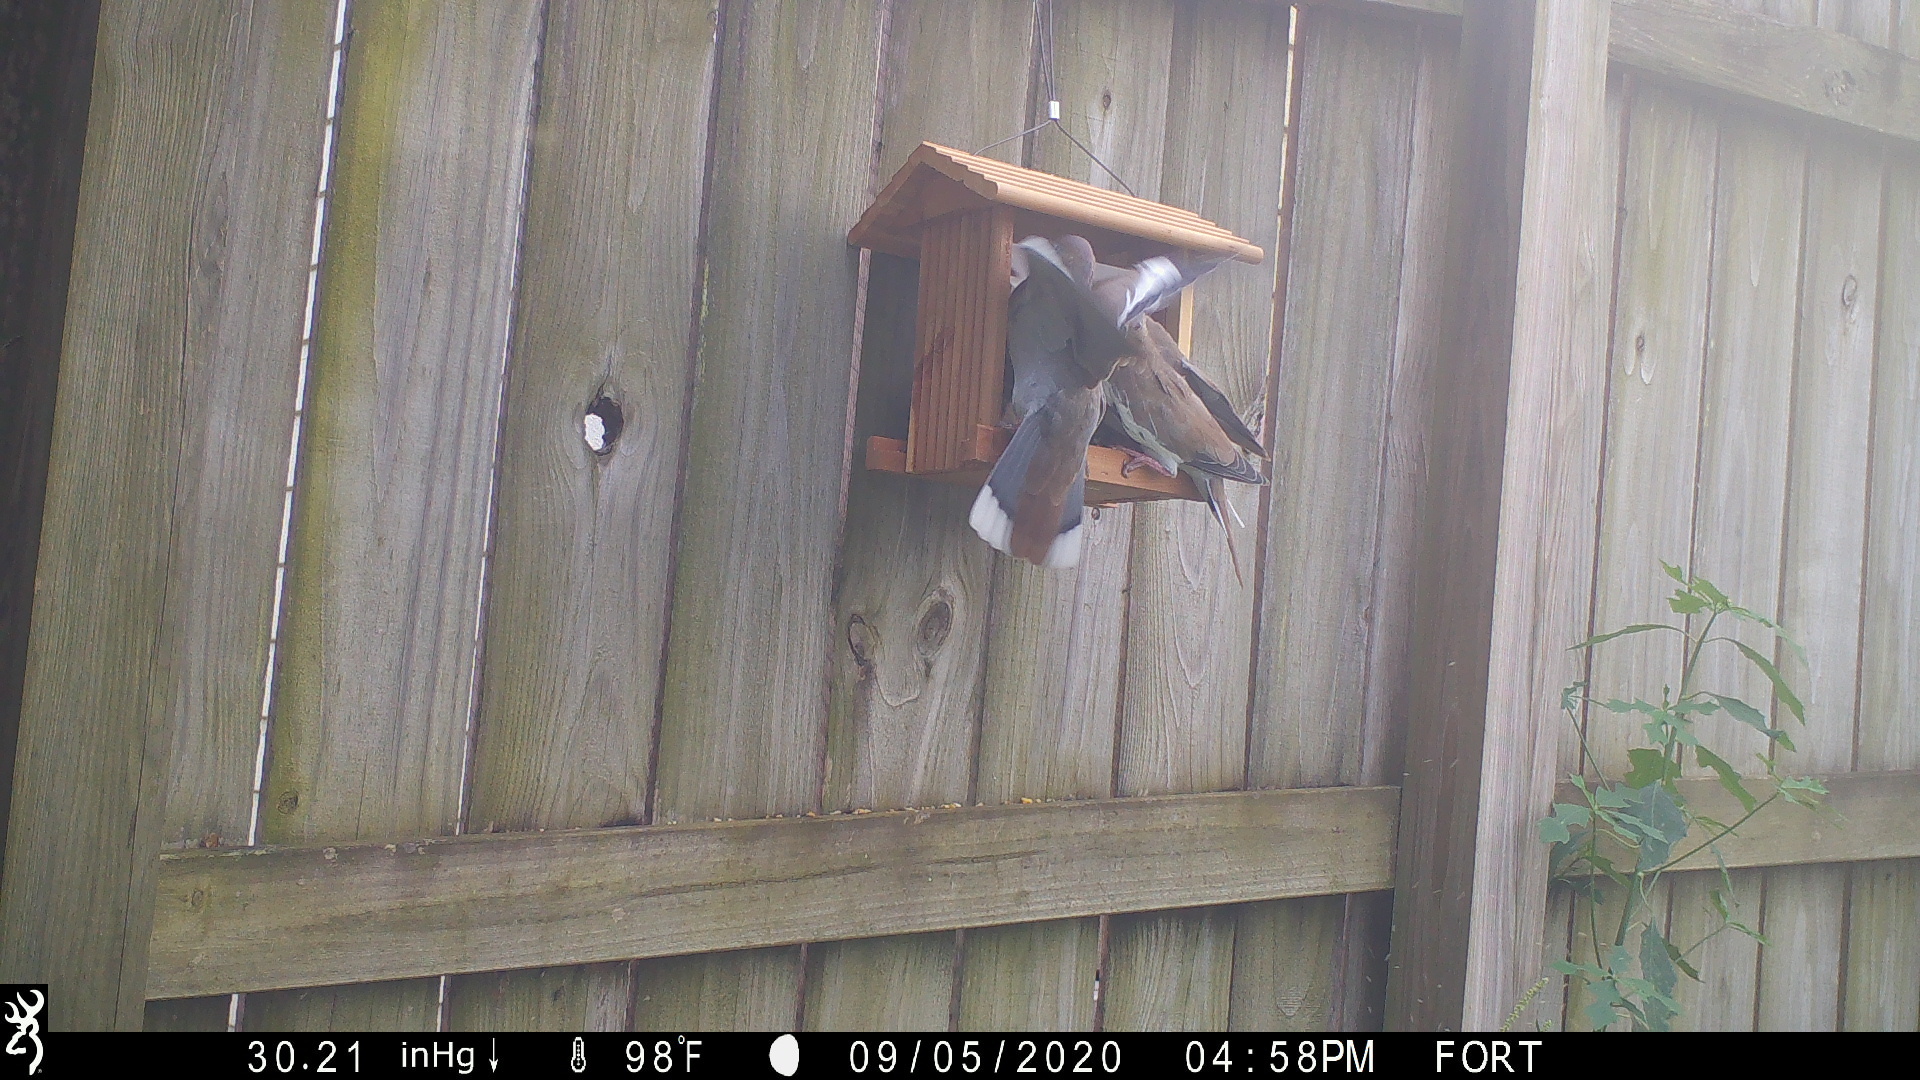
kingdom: Animalia
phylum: Chordata
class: Aves
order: Columbiformes
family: Columbidae
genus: Zenaida
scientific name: Zenaida asiatica
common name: White-winged dove
